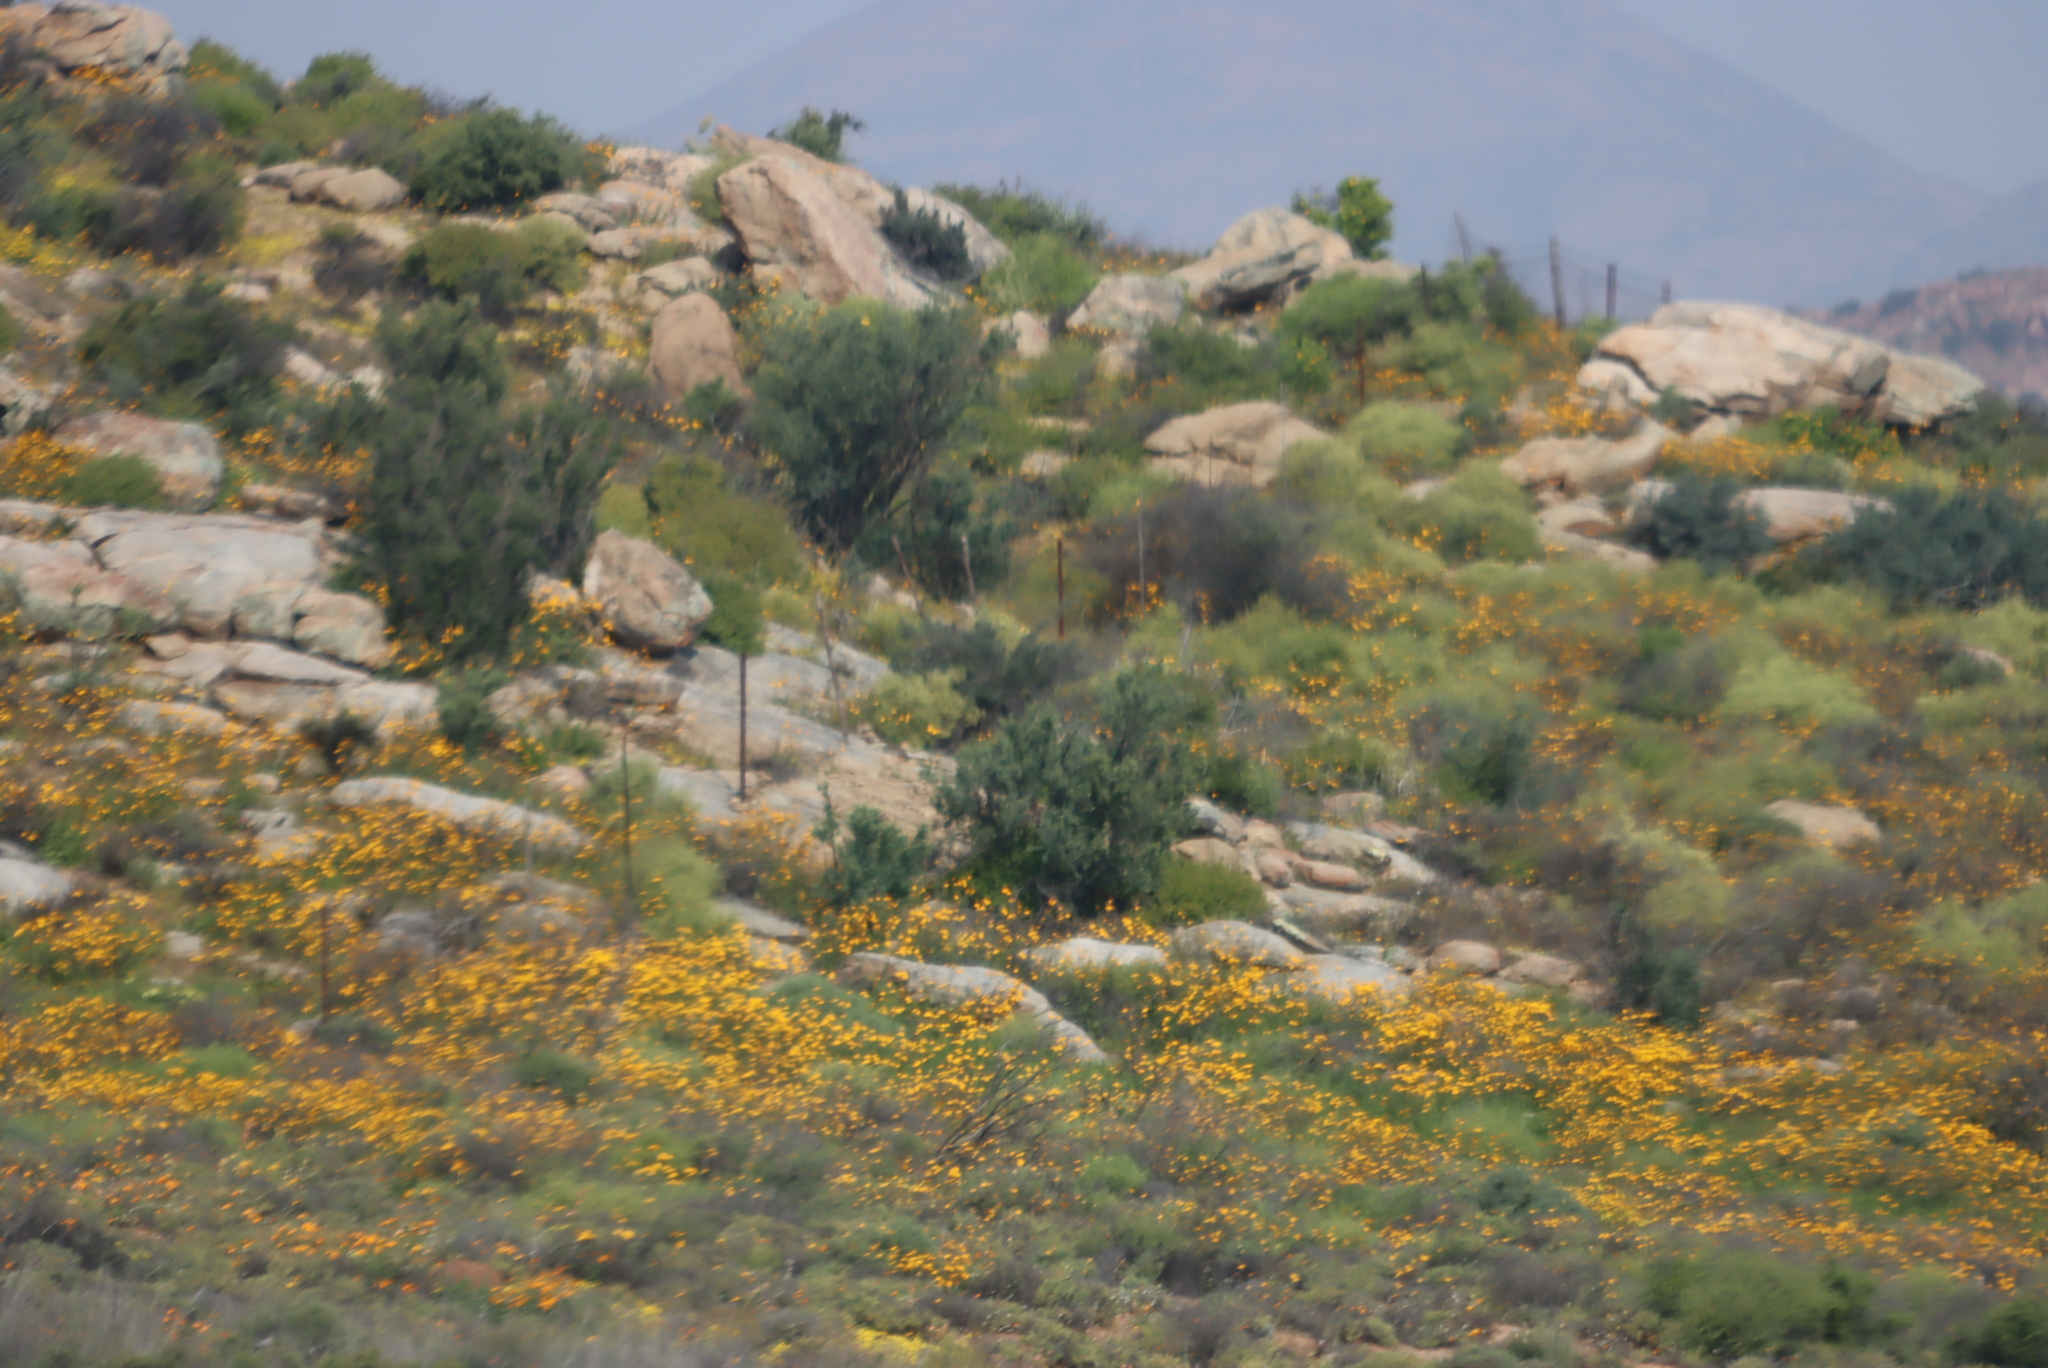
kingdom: Plantae
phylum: Tracheophyta
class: Magnoliopsida
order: Asterales
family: Asteraceae
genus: Dimorphotheca
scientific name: Dimorphotheca sinuata
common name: Glandular cape marigold
